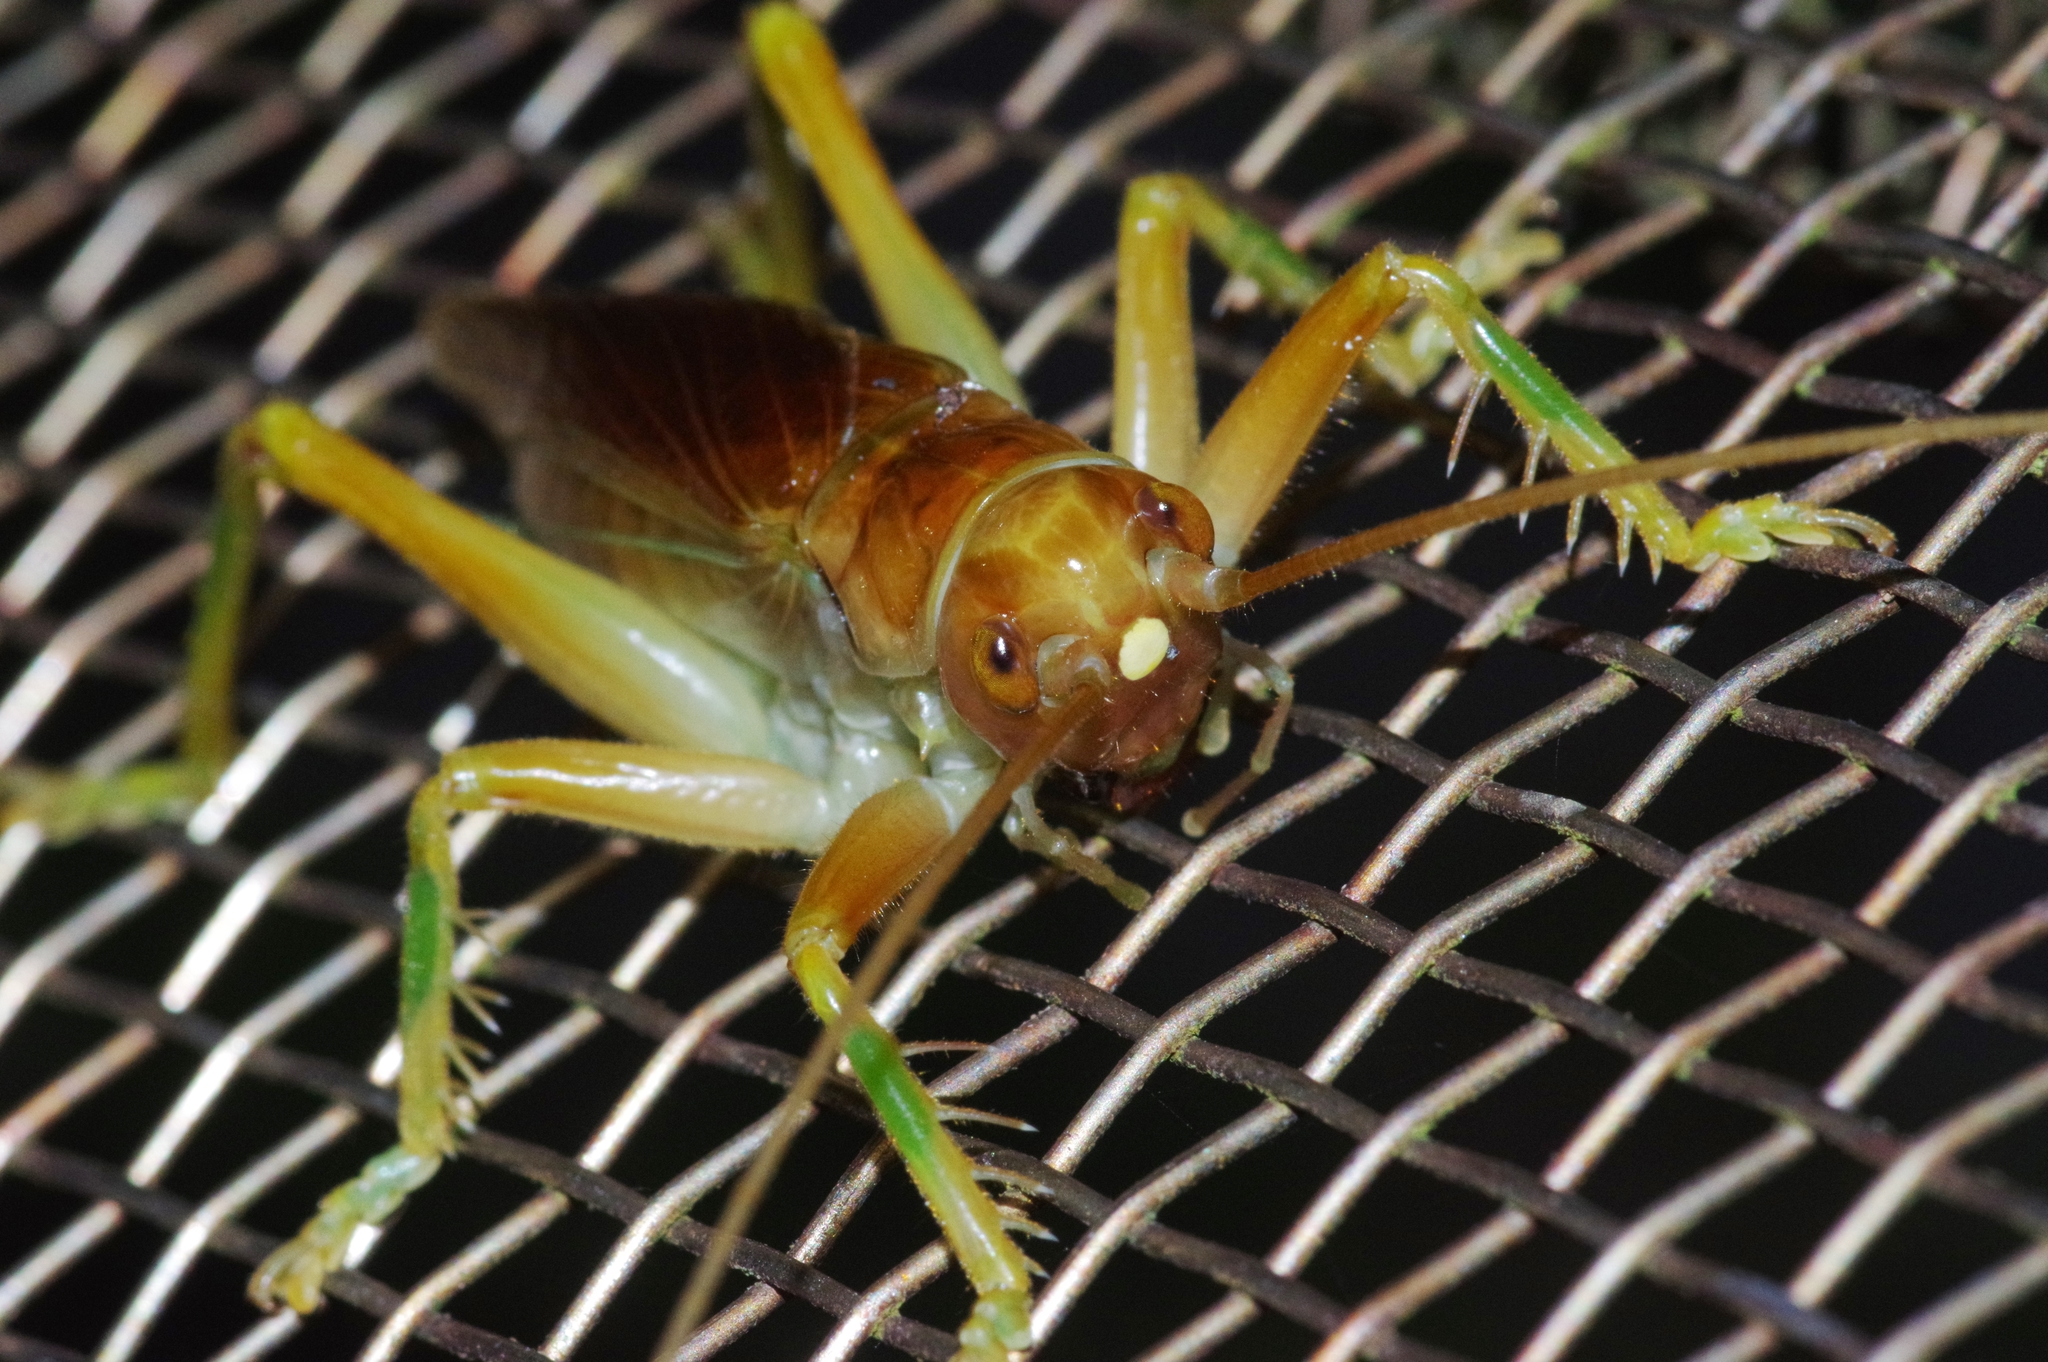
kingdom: Animalia
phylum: Arthropoda
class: Insecta
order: Orthoptera
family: Gryllacrididae
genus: Prosopogryllacris
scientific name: Prosopogryllacris simulans
